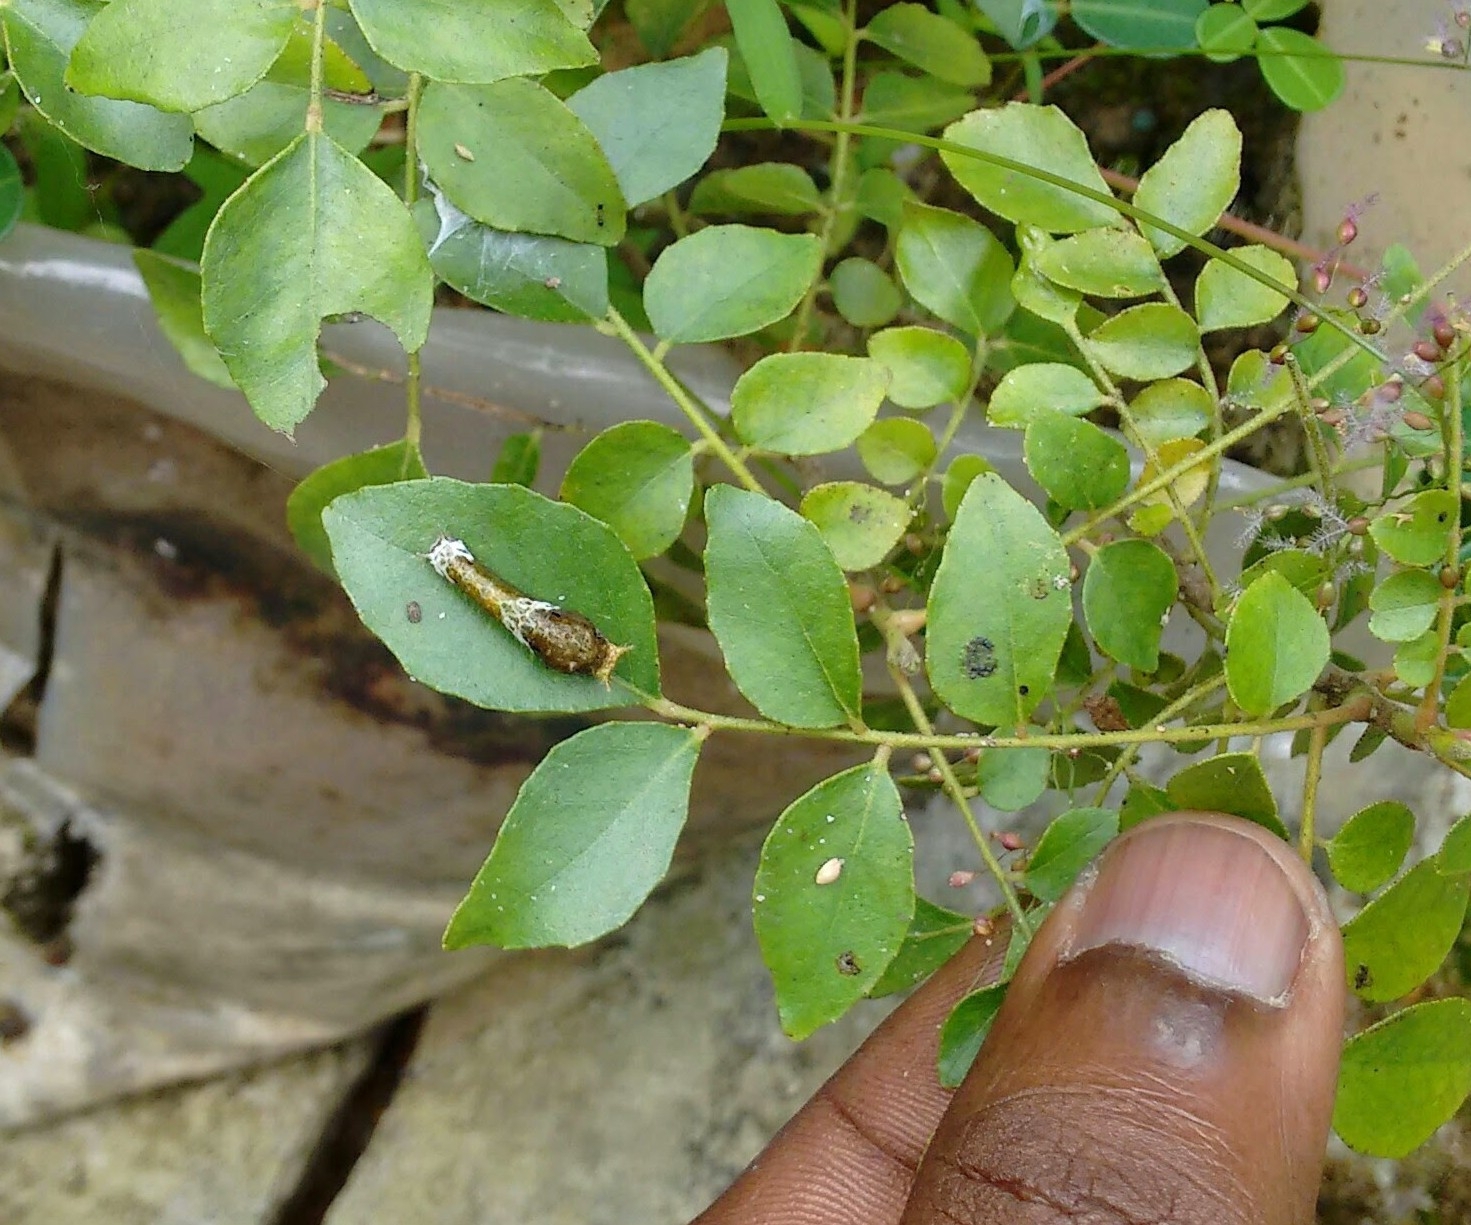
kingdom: Animalia
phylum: Arthropoda
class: Insecta
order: Lepidoptera
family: Papilionidae
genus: Papilio
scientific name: Papilio polytes
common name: Common mormon
